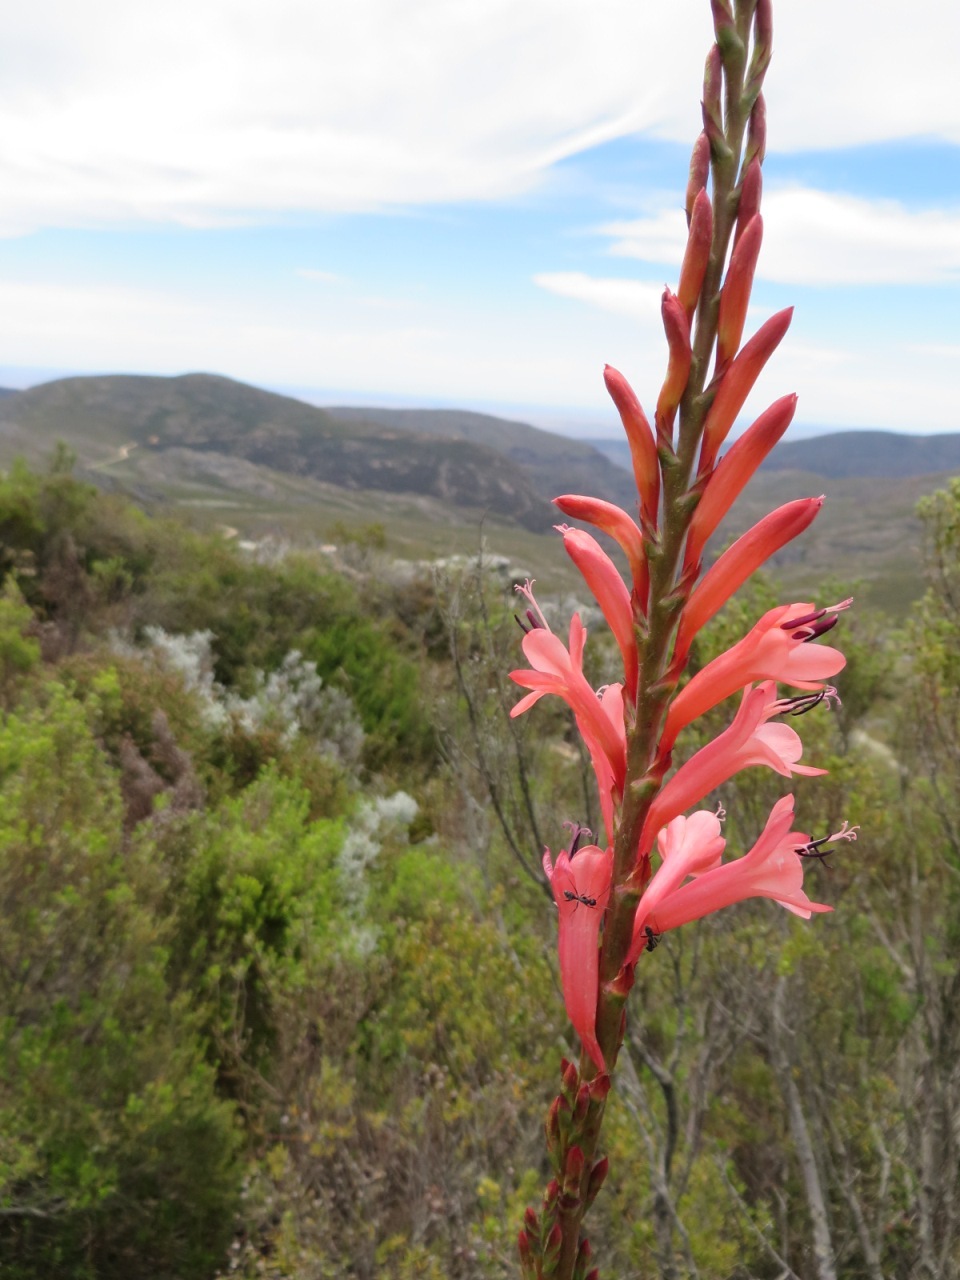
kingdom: Animalia
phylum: Arthropoda
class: Insecta
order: Hymenoptera
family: Formicidae
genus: Camponotus
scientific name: Camponotus niveosetosus
